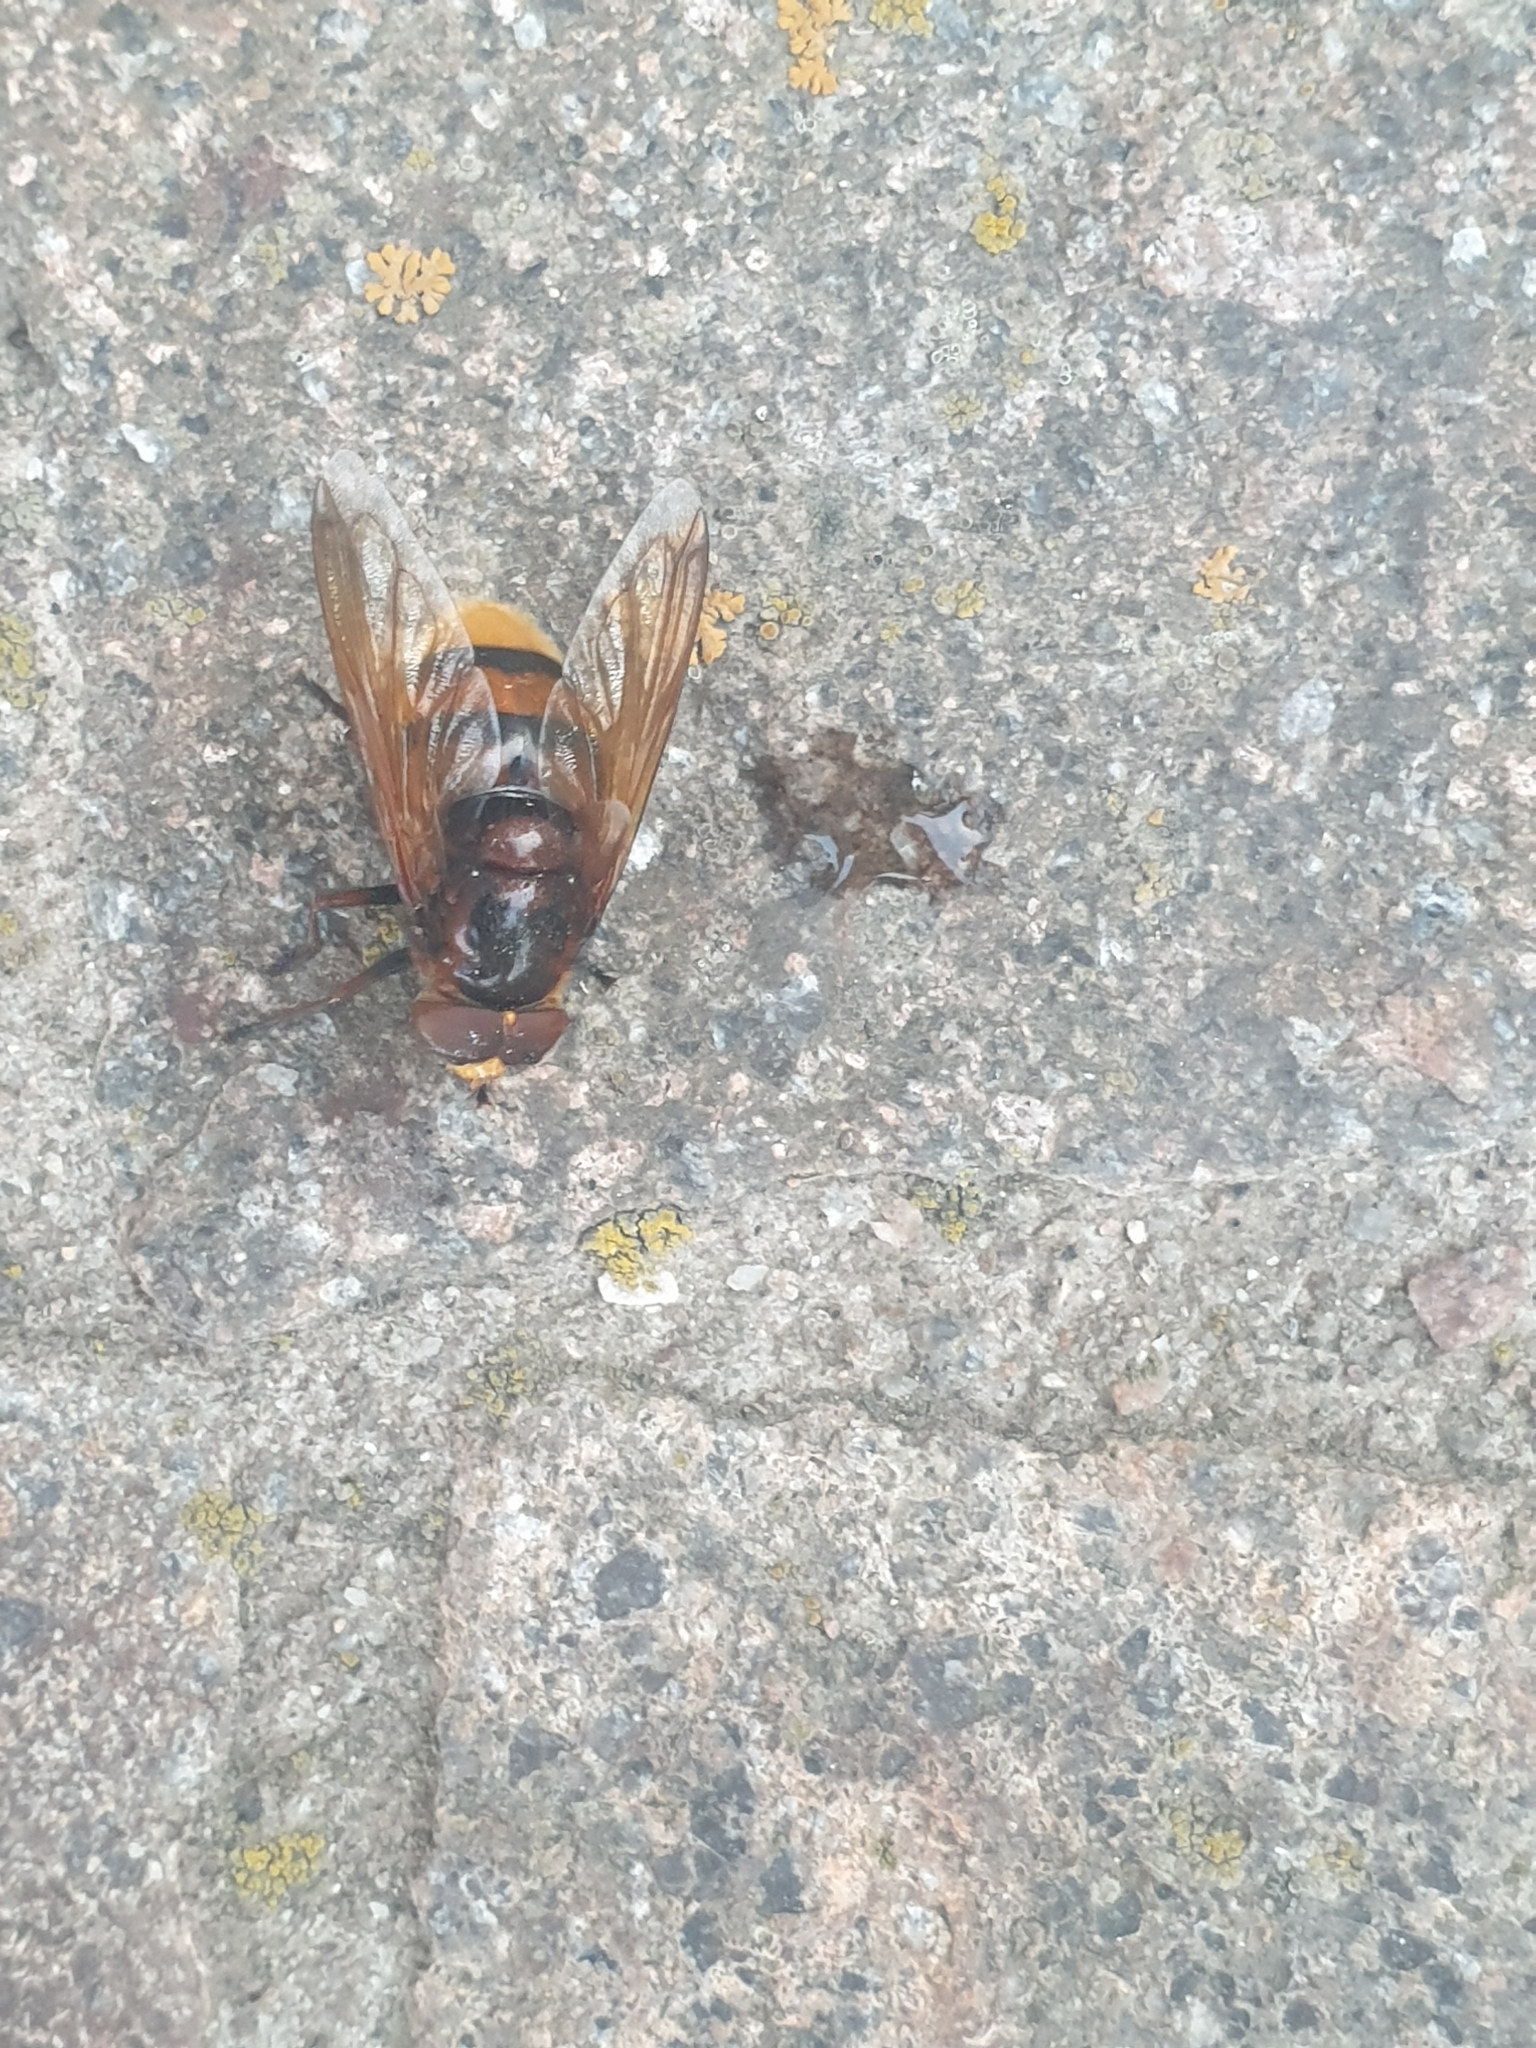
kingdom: Animalia
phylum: Arthropoda
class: Insecta
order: Diptera
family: Syrphidae
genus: Volucella
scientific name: Volucella zonaria
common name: Hornet hoverfly
